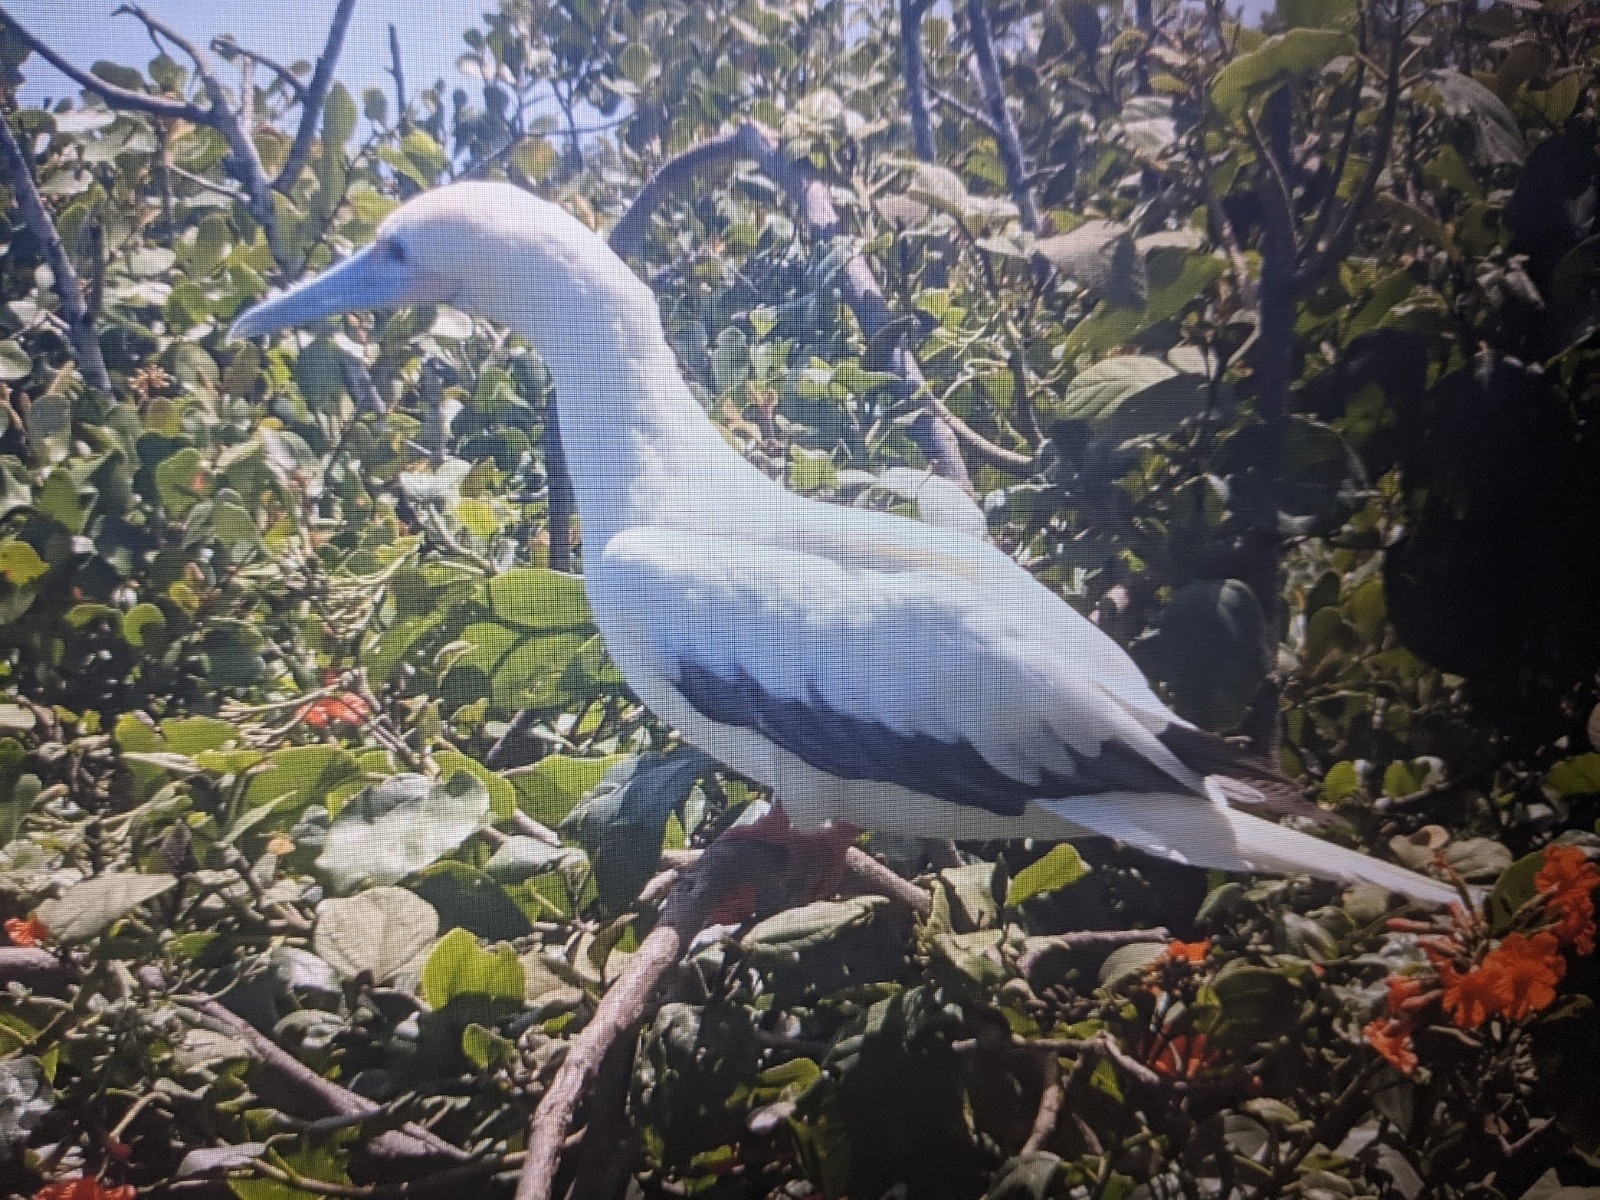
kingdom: Animalia
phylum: Chordata
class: Aves
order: Suliformes
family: Sulidae
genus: Sula
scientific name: Sula sula
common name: Red-footed booby
